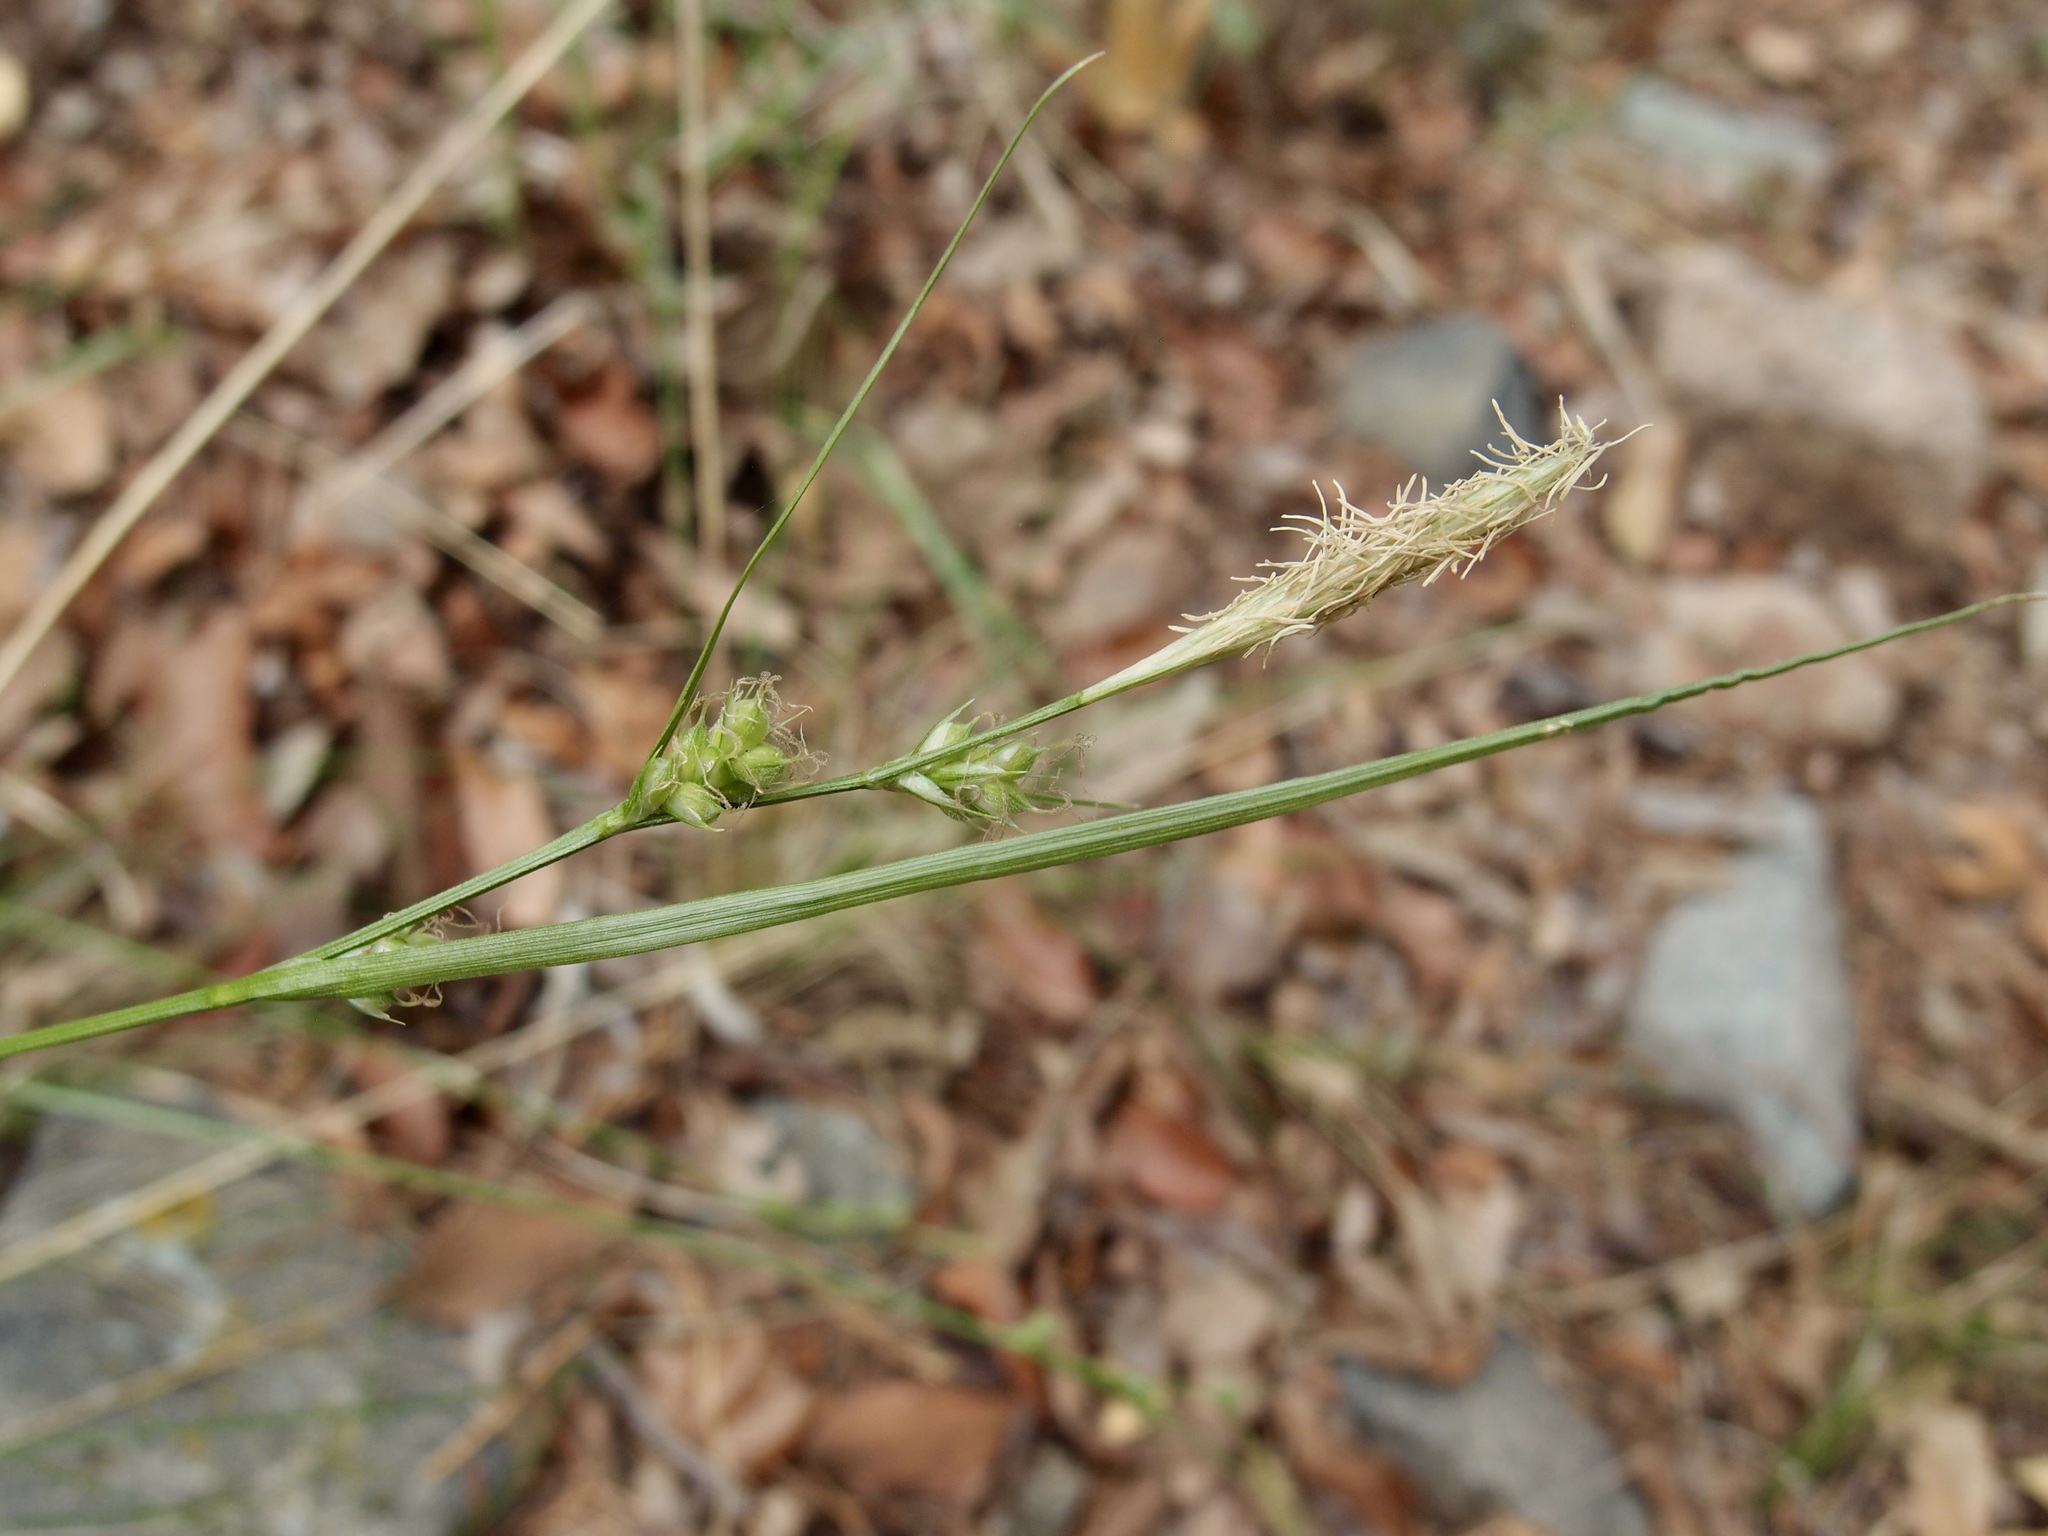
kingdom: Plantae
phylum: Tracheophyta
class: Liliopsida
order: Poales
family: Cyperaceae
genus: Carex
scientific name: Carex turbinata
